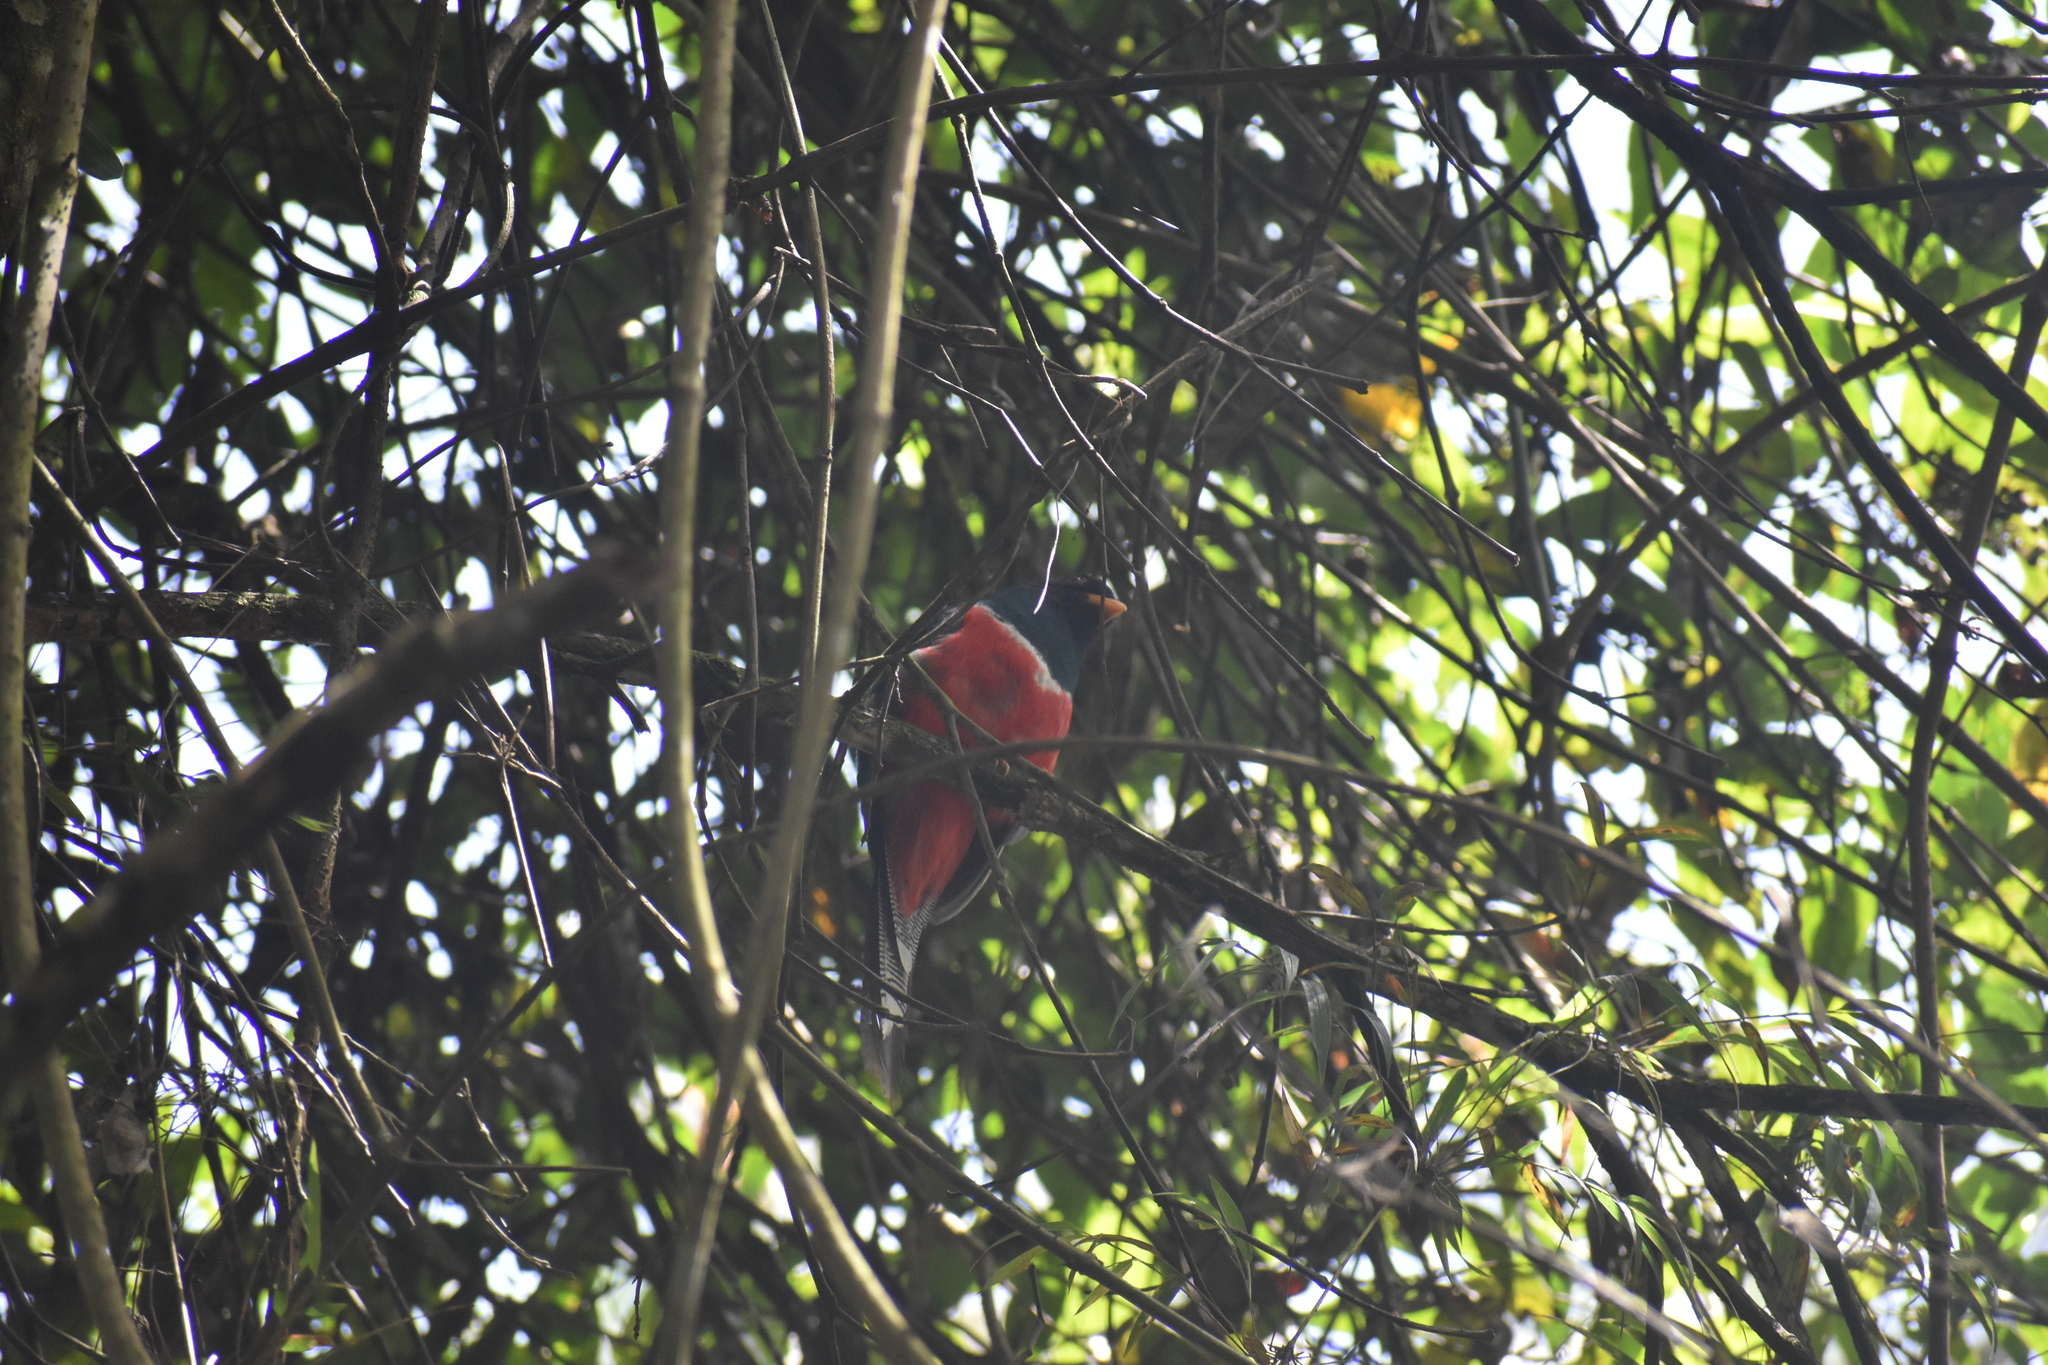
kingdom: Animalia
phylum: Chordata
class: Aves
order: Trogoniformes
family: Trogonidae
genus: Trogon
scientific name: Trogon collaris
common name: Collared trogon
